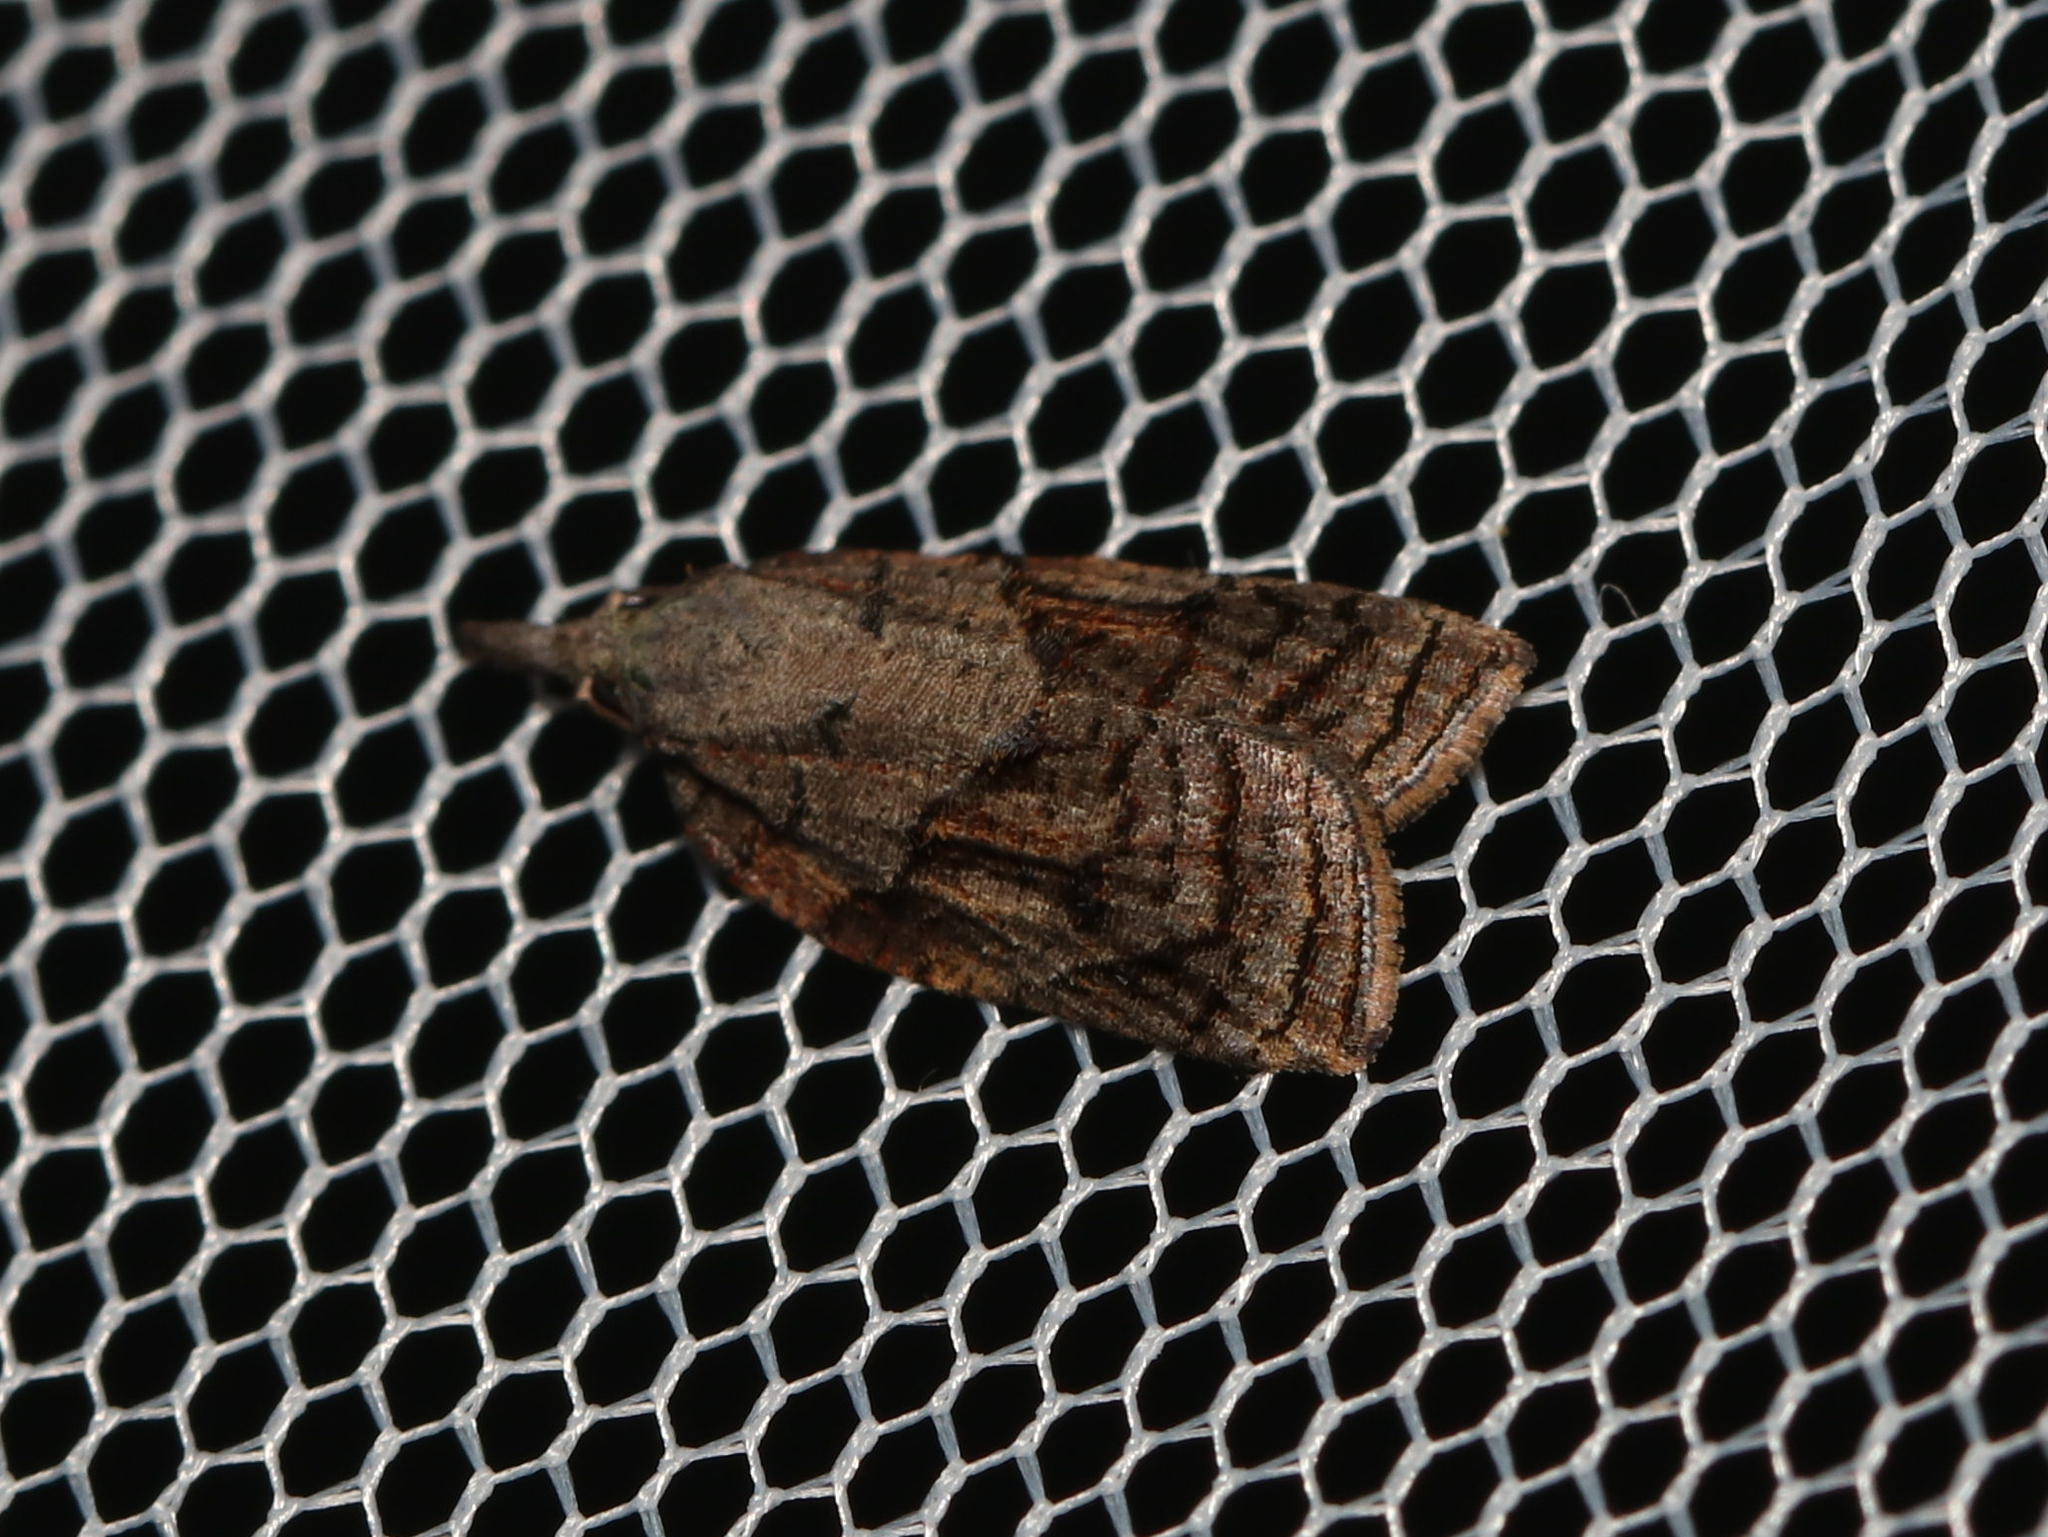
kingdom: Animalia
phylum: Arthropoda
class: Insecta
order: Lepidoptera
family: Tortricidae
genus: Platynota
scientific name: Platynota idaeusalis
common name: Tufted apple bud moth
